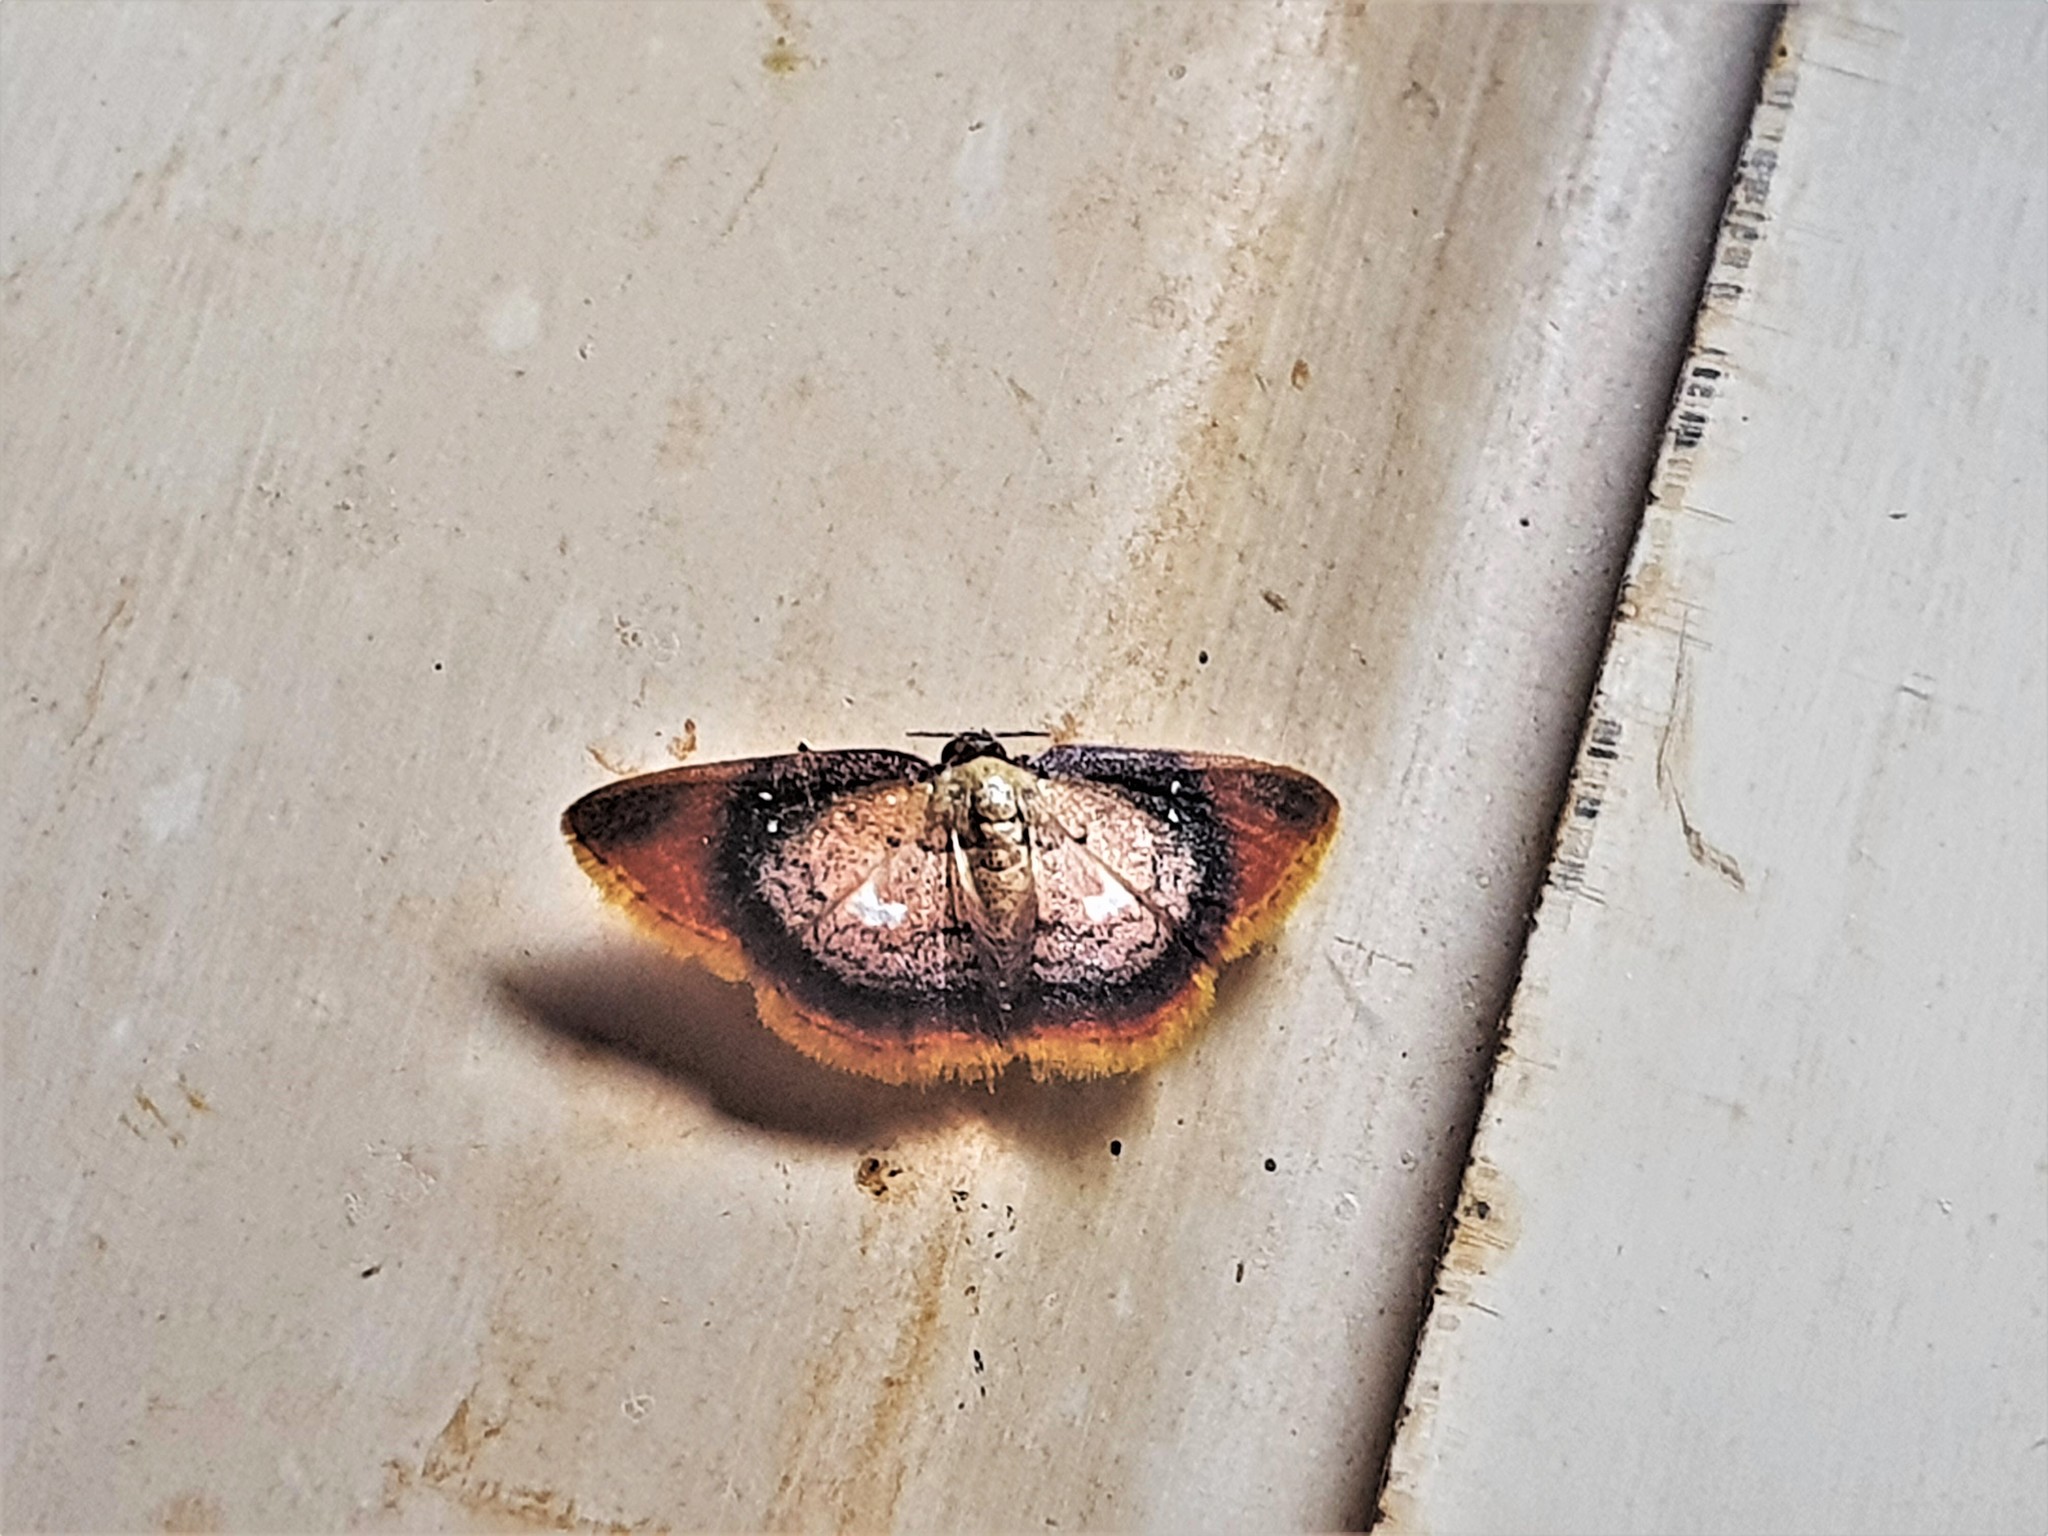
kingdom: Animalia
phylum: Arthropoda
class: Insecta
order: Lepidoptera
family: Geometridae
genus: Tricentra
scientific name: Tricentra albiguttata
